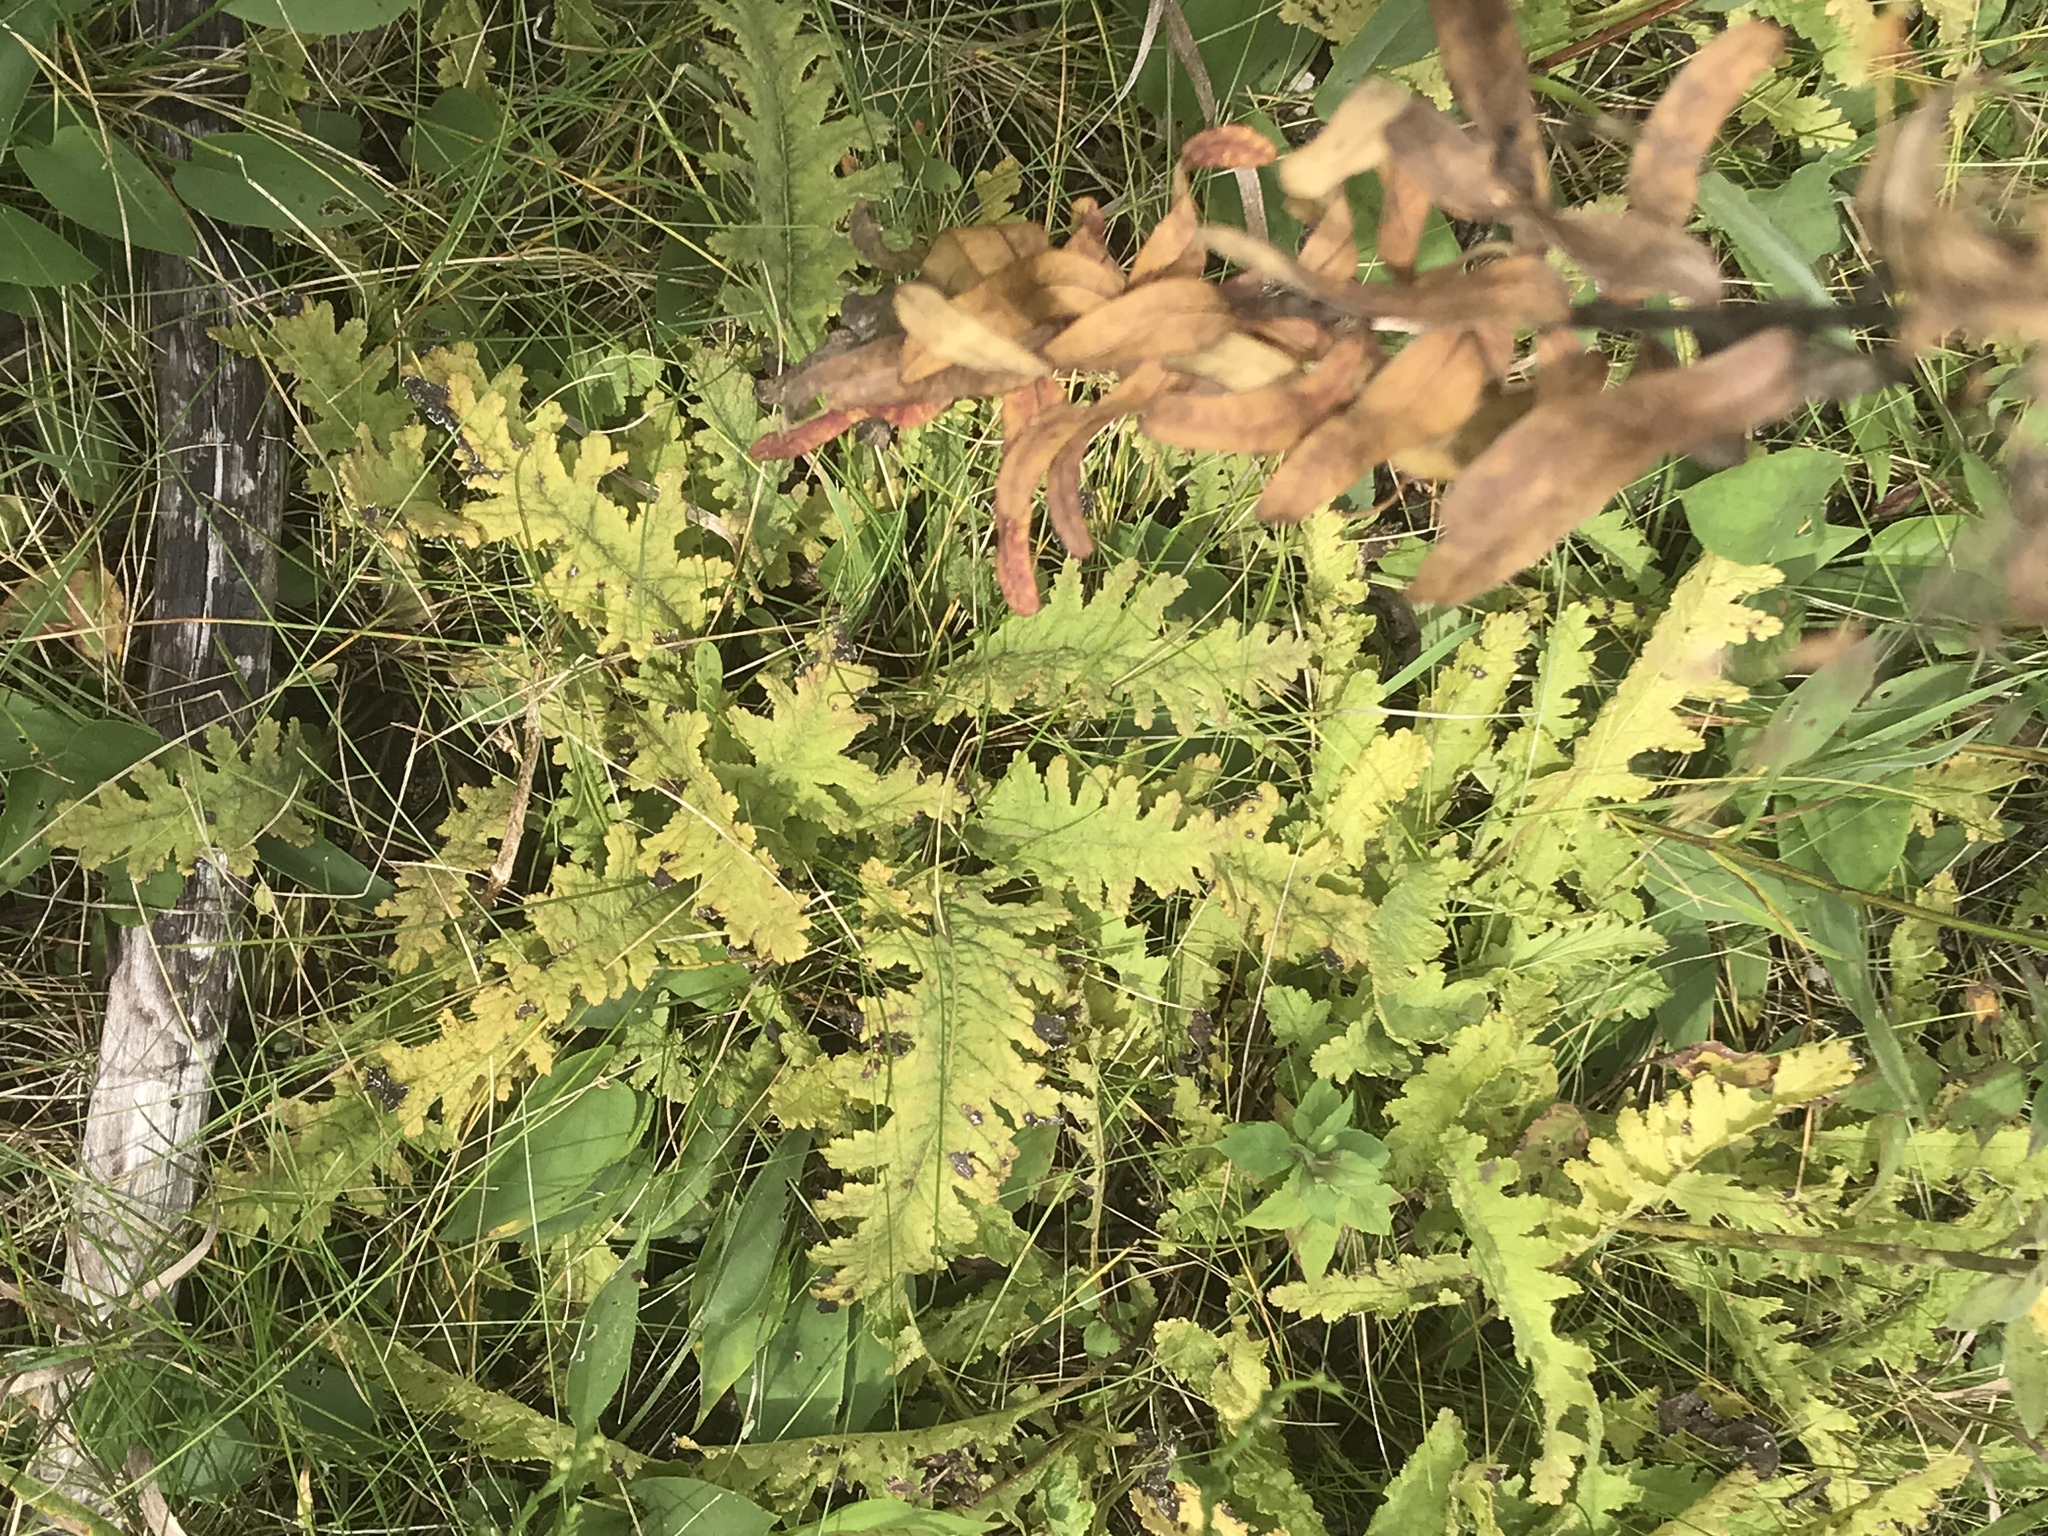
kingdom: Plantae
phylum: Tracheophyta
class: Magnoliopsida
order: Lamiales
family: Orobanchaceae
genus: Pedicularis
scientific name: Pedicularis canadensis
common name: Early lousewort
